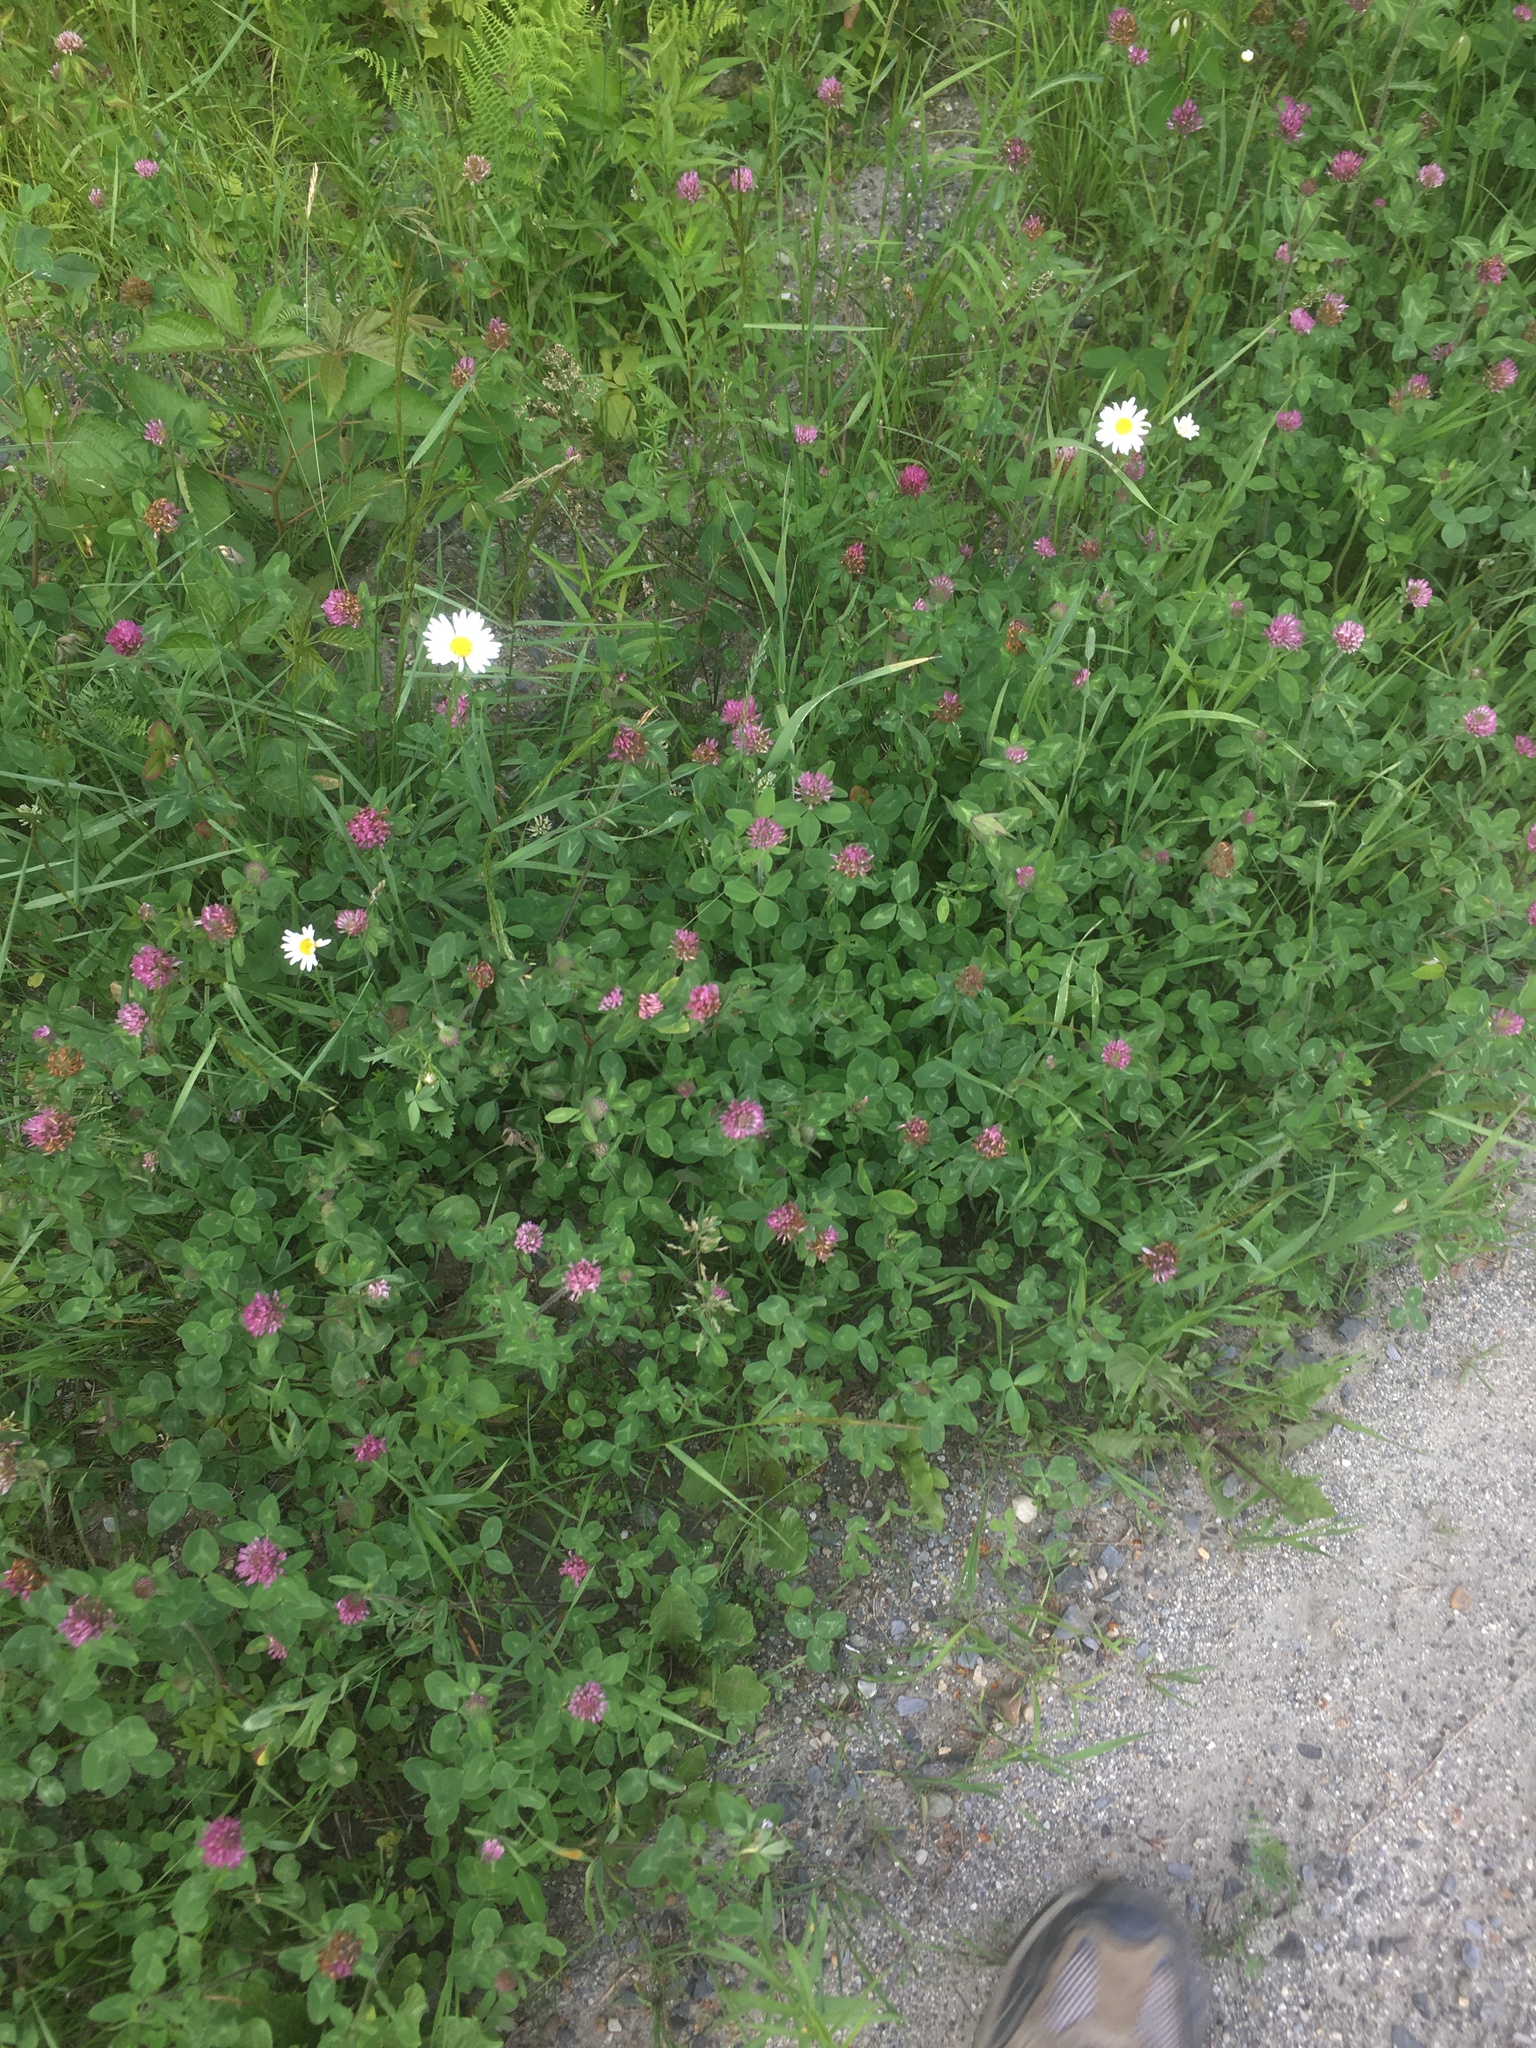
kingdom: Plantae
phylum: Tracheophyta
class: Magnoliopsida
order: Fabales
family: Fabaceae
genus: Trifolium
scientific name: Trifolium pratense
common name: Red clover
